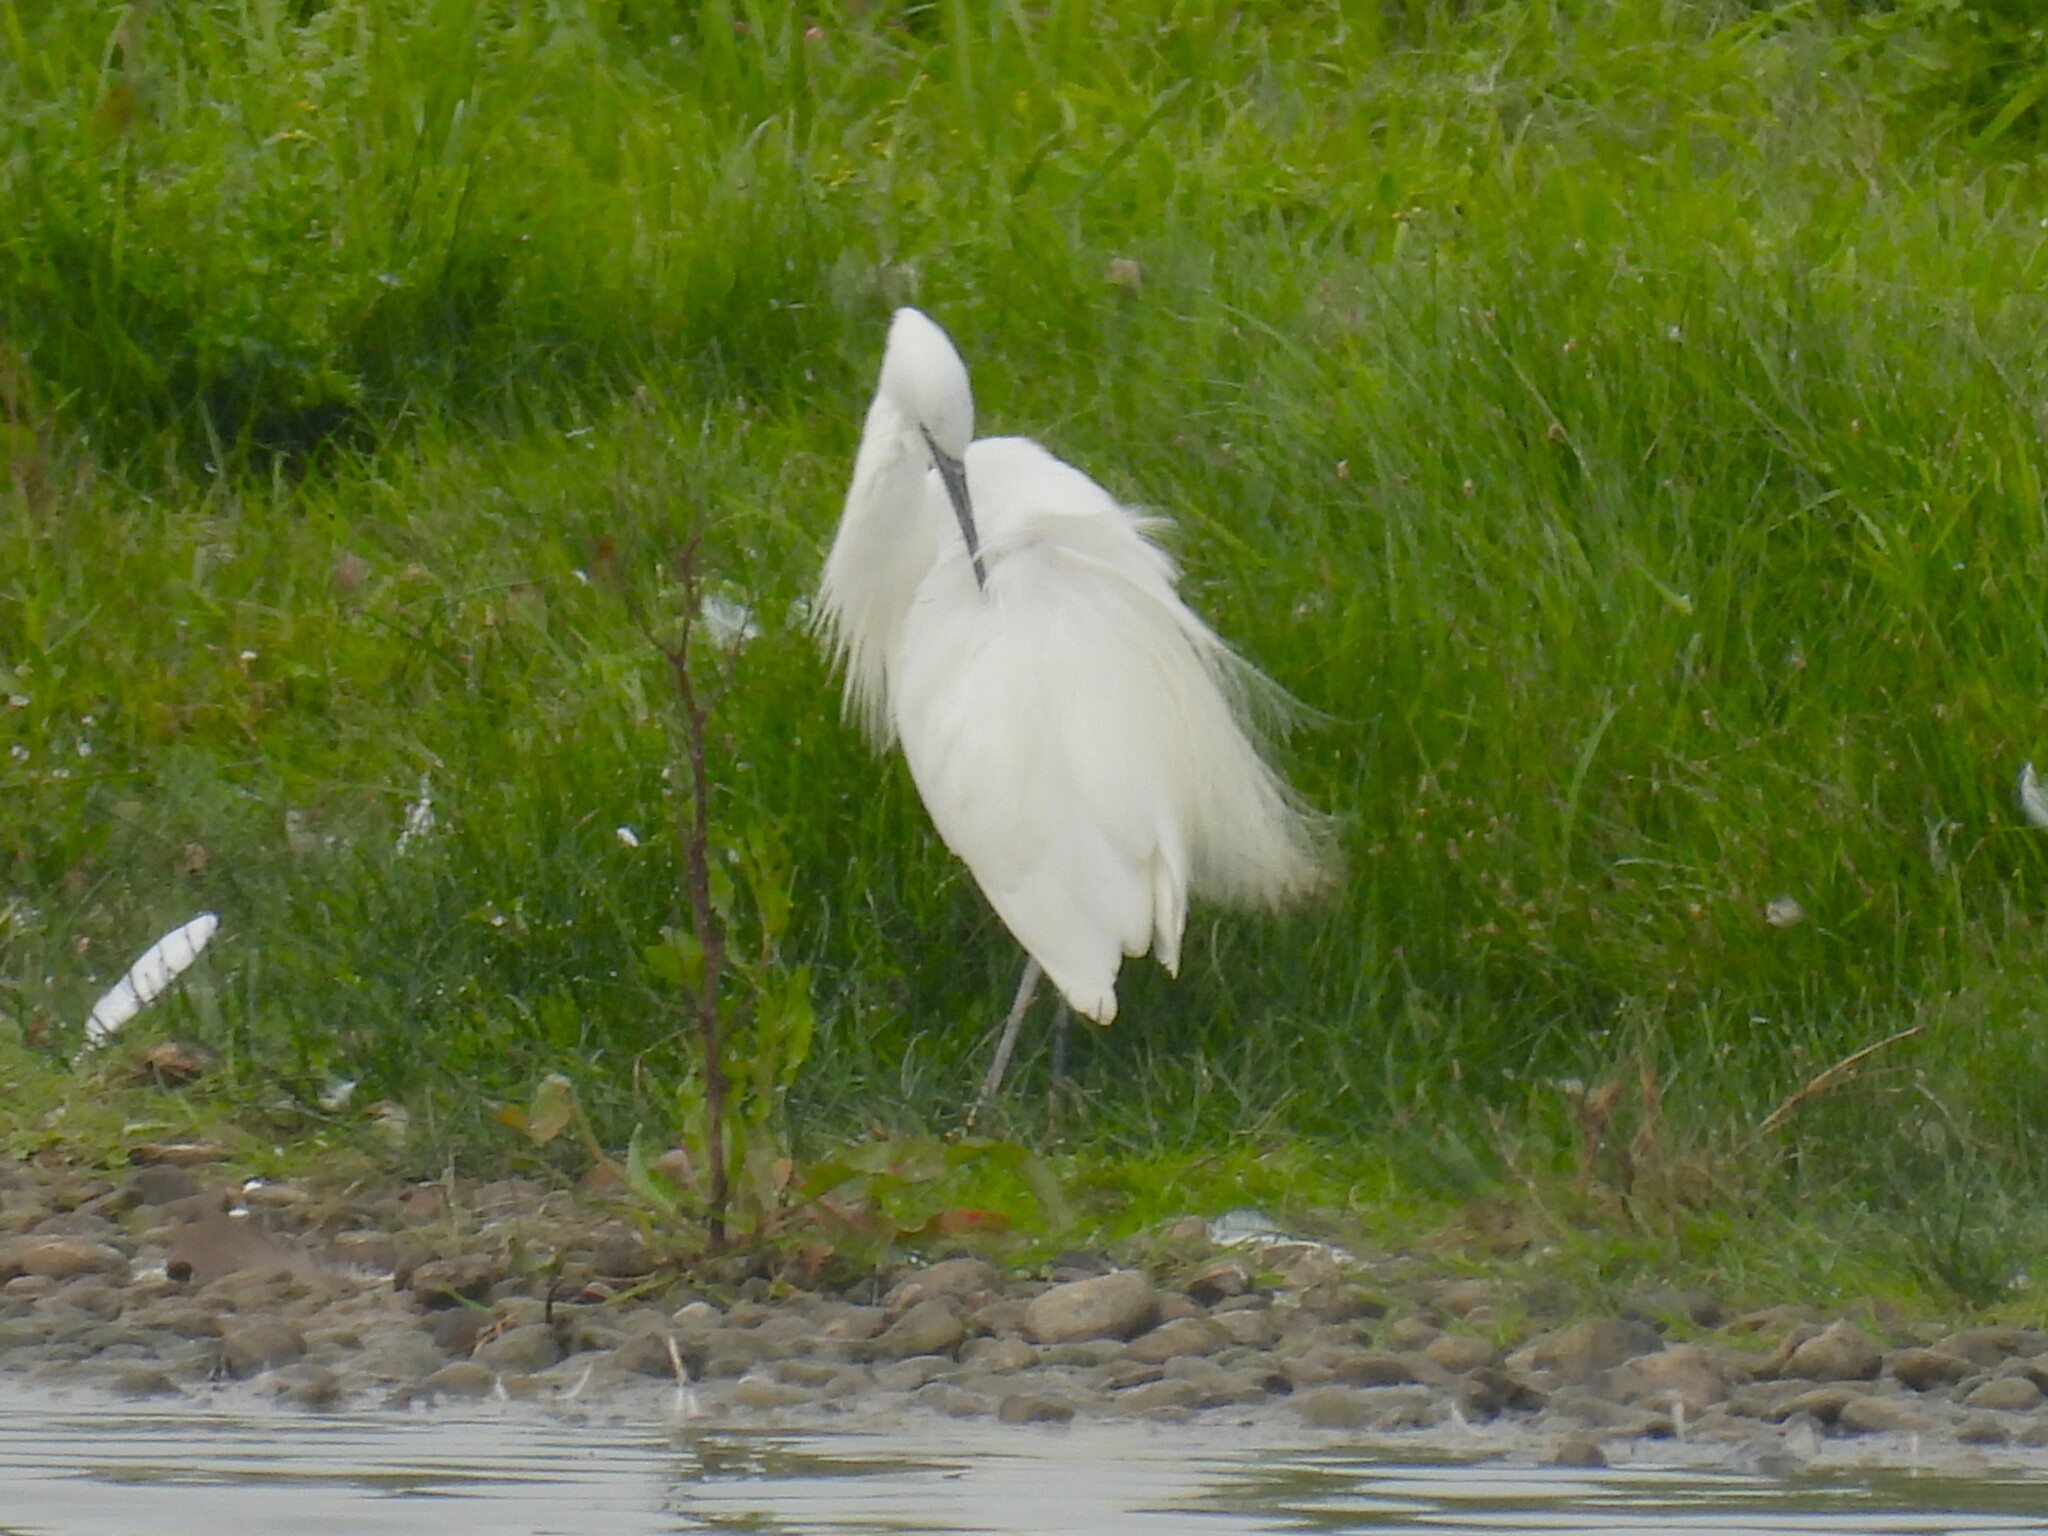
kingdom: Animalia
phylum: Chordata
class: Aves
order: Pelecaniformes
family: Ardeidae
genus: Egretta
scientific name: Egretta garzetta
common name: Little egret
